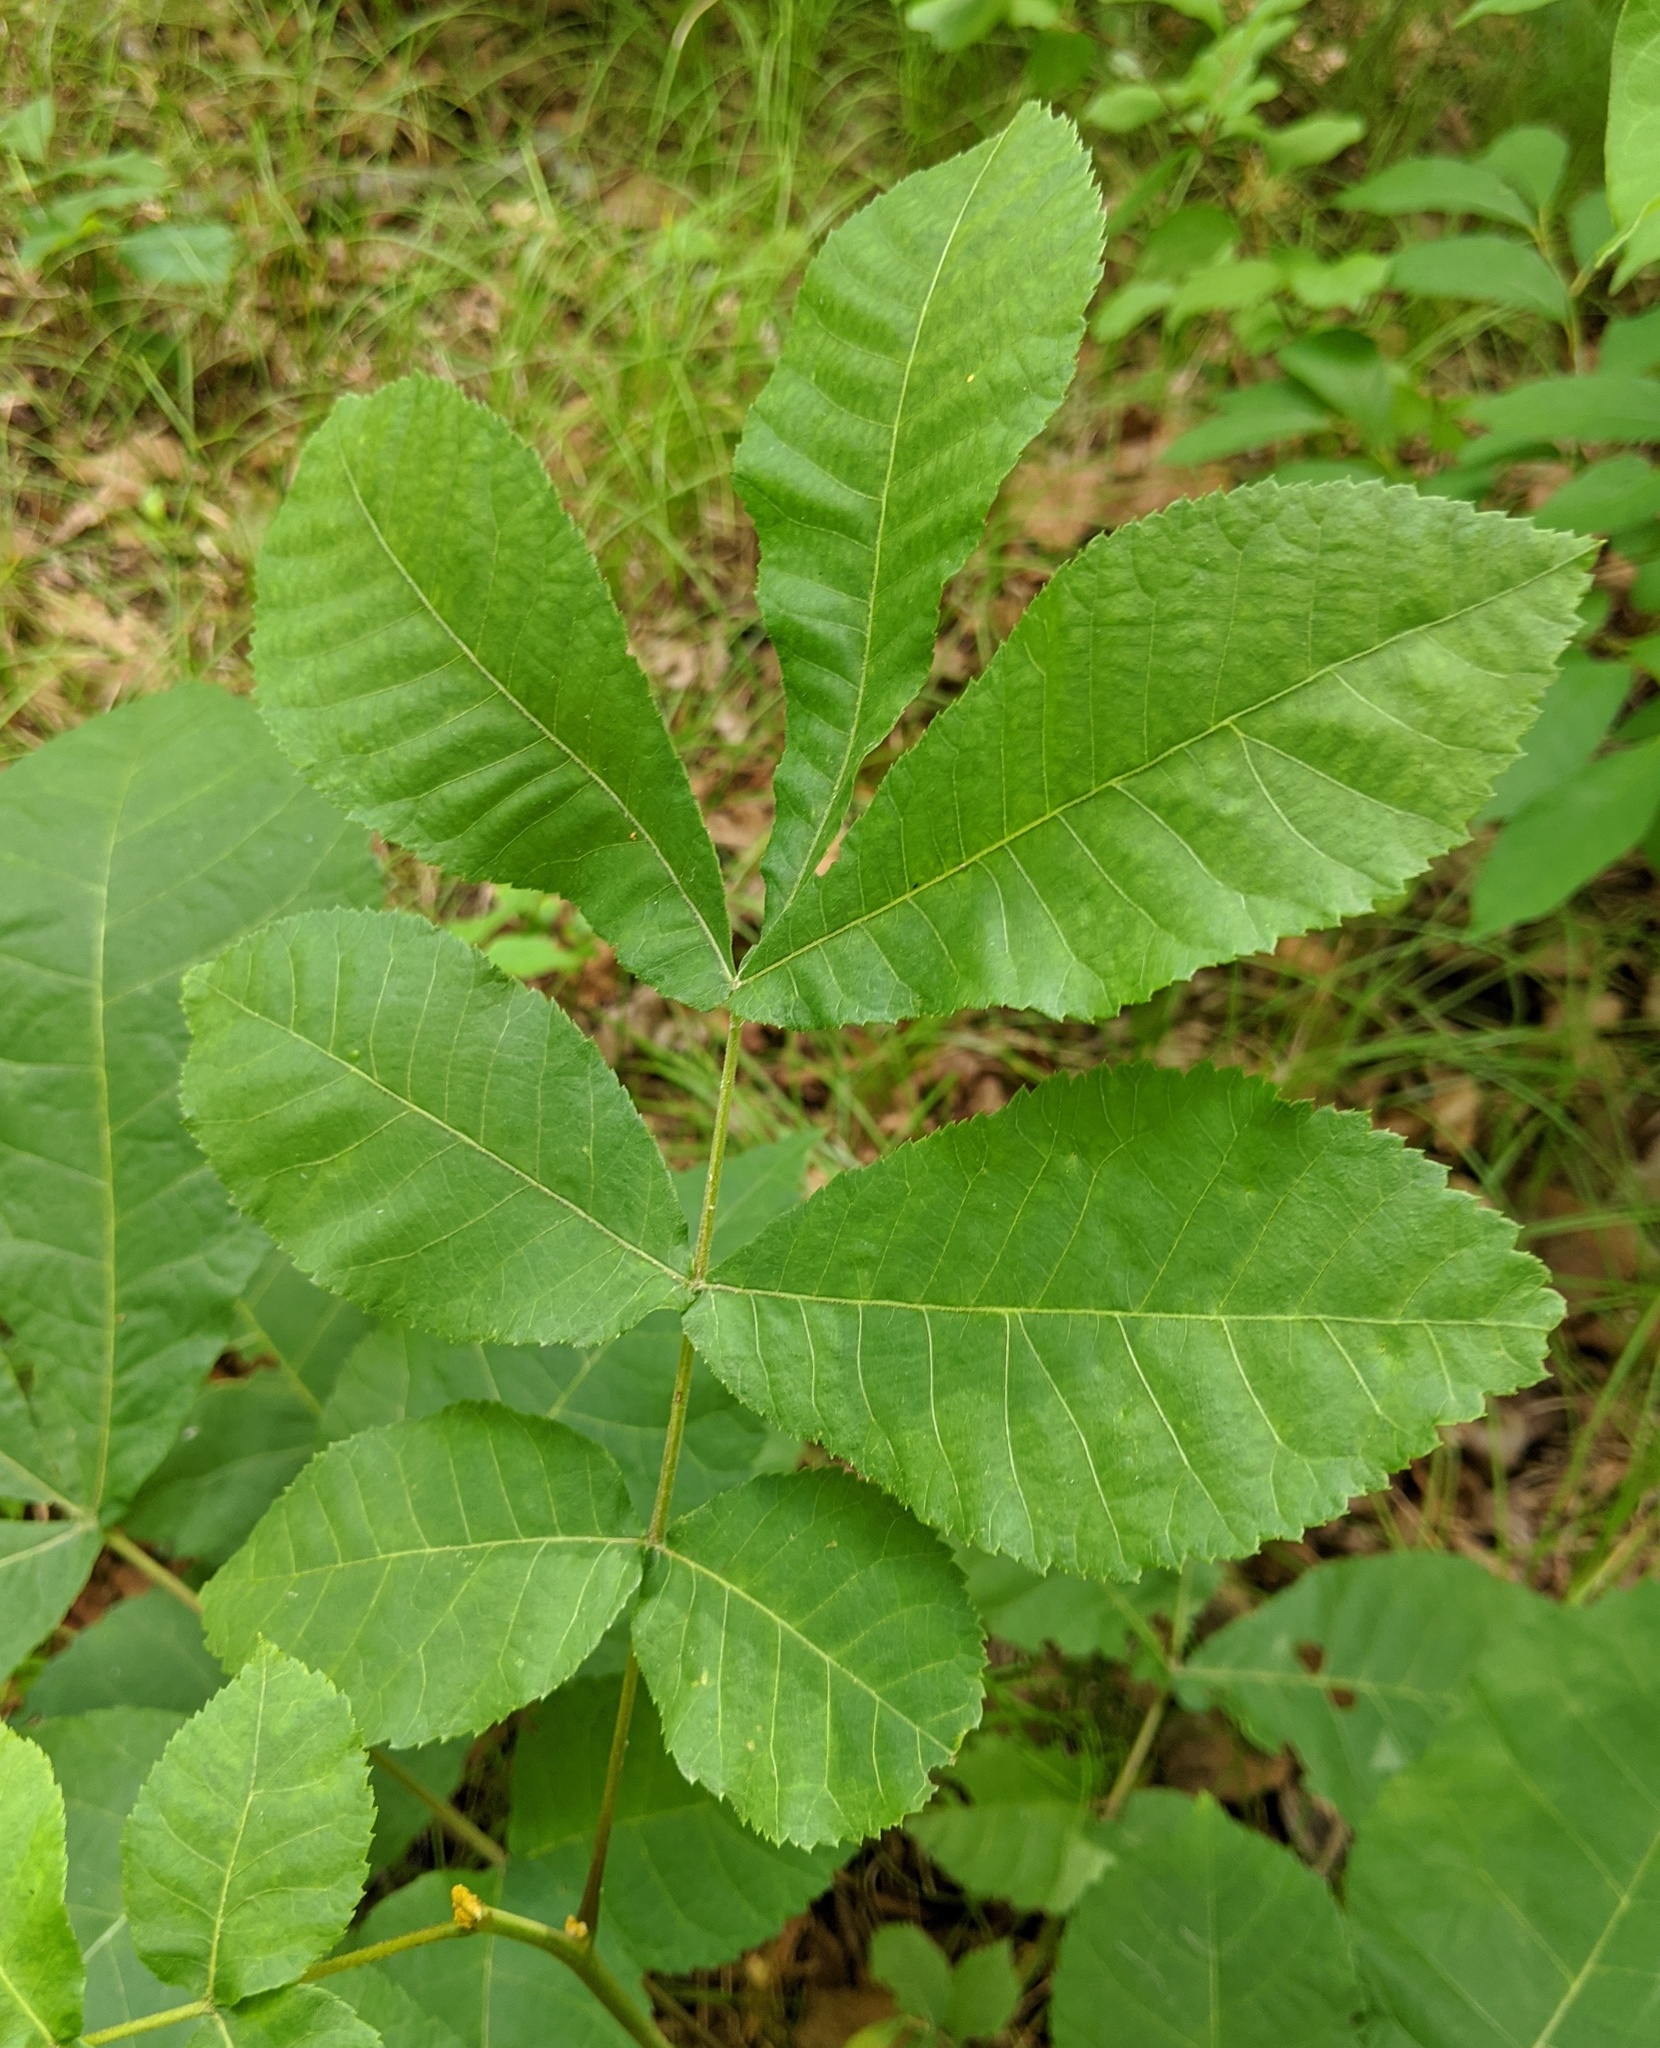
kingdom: Plantae
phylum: Tracheophyta
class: Magnoliopsida
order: Fagales
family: Juglandaceae
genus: Carya
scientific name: Carya cordiformis
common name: Bitternut hickory
